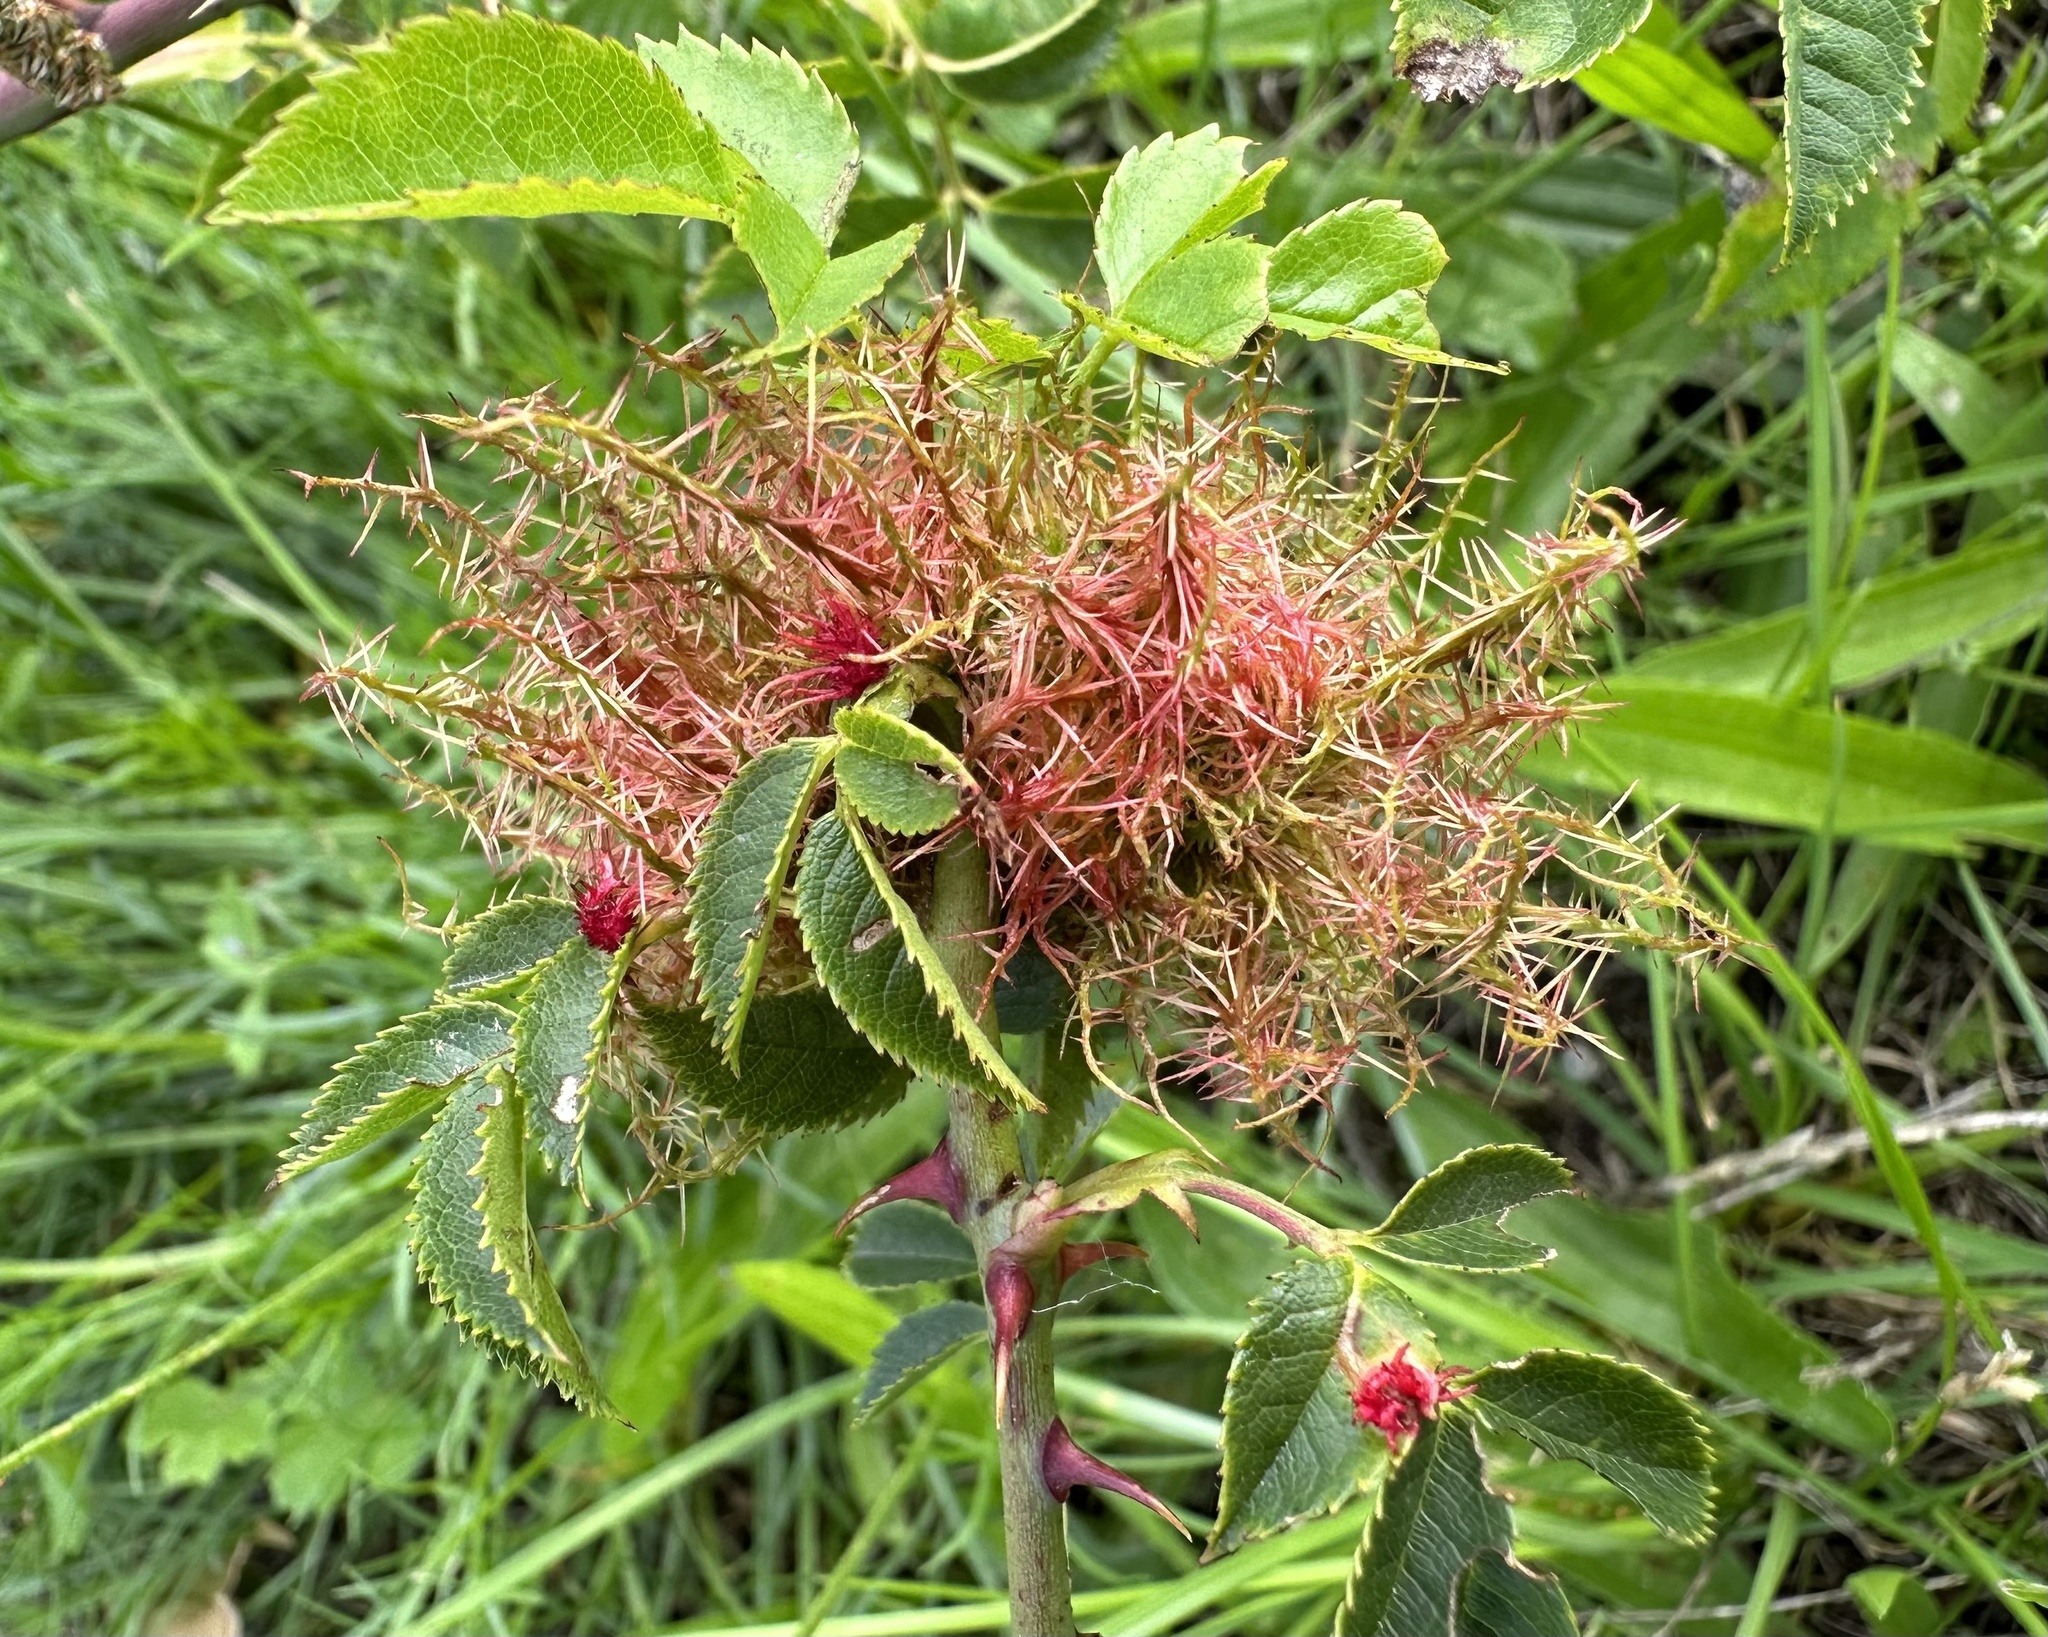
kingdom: Animalia
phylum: Arthropoda
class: Insecta
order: Hymenoptera
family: Cynipidae
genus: Diplolepis
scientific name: Diplolepis rosae
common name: Bedeguar gall
